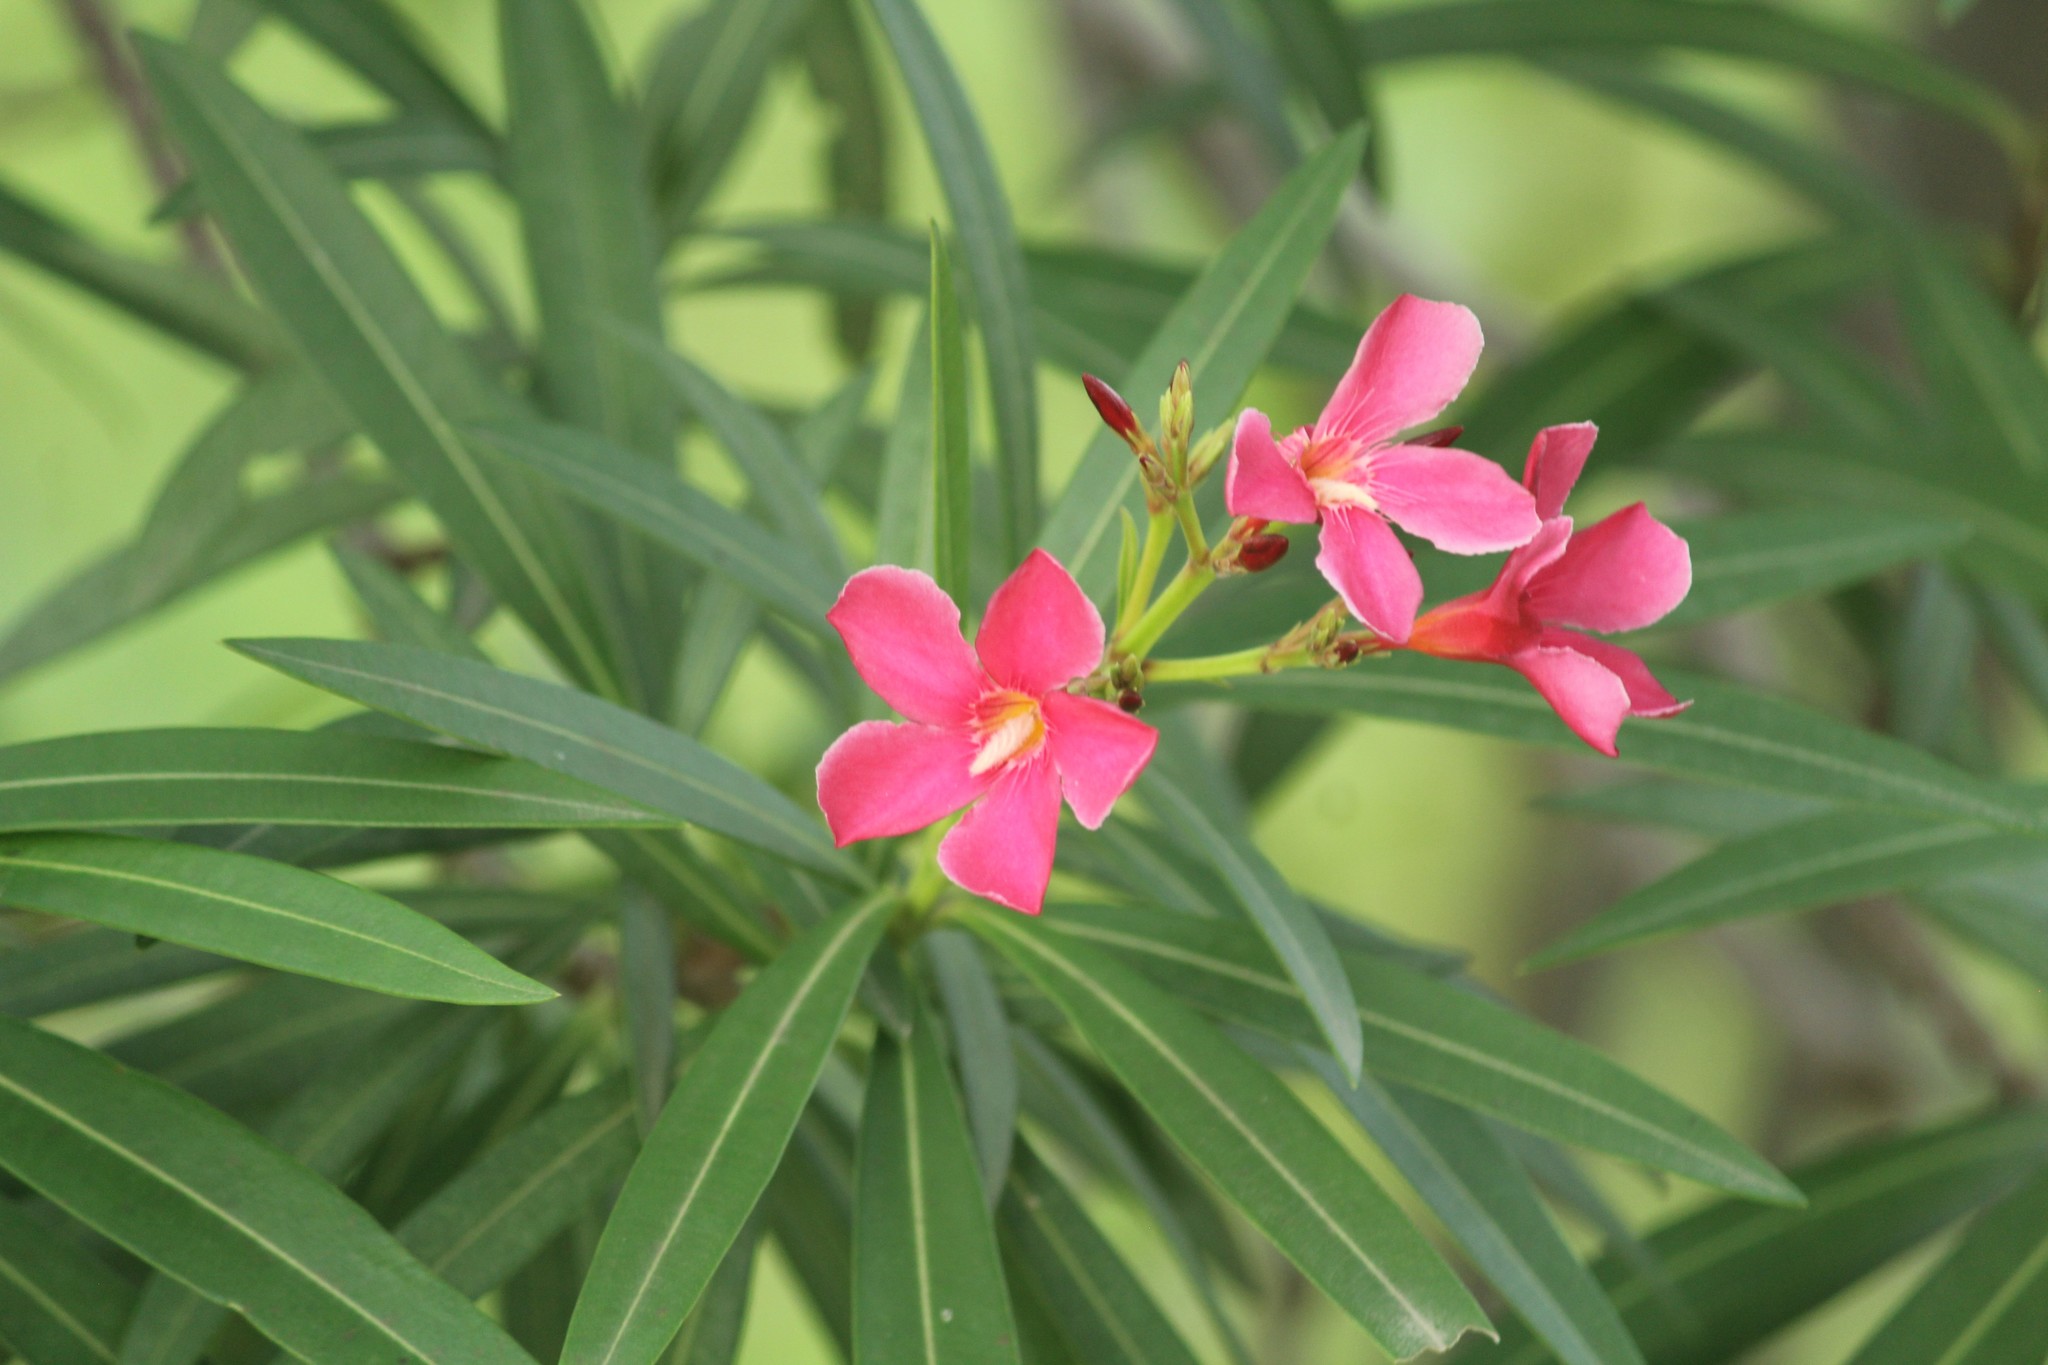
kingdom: Plantae
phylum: Tracheophyta
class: Magnoliopsida
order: Gentianales
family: Apocynaceae
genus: Nerium
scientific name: Nerium oleander
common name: Oleander
